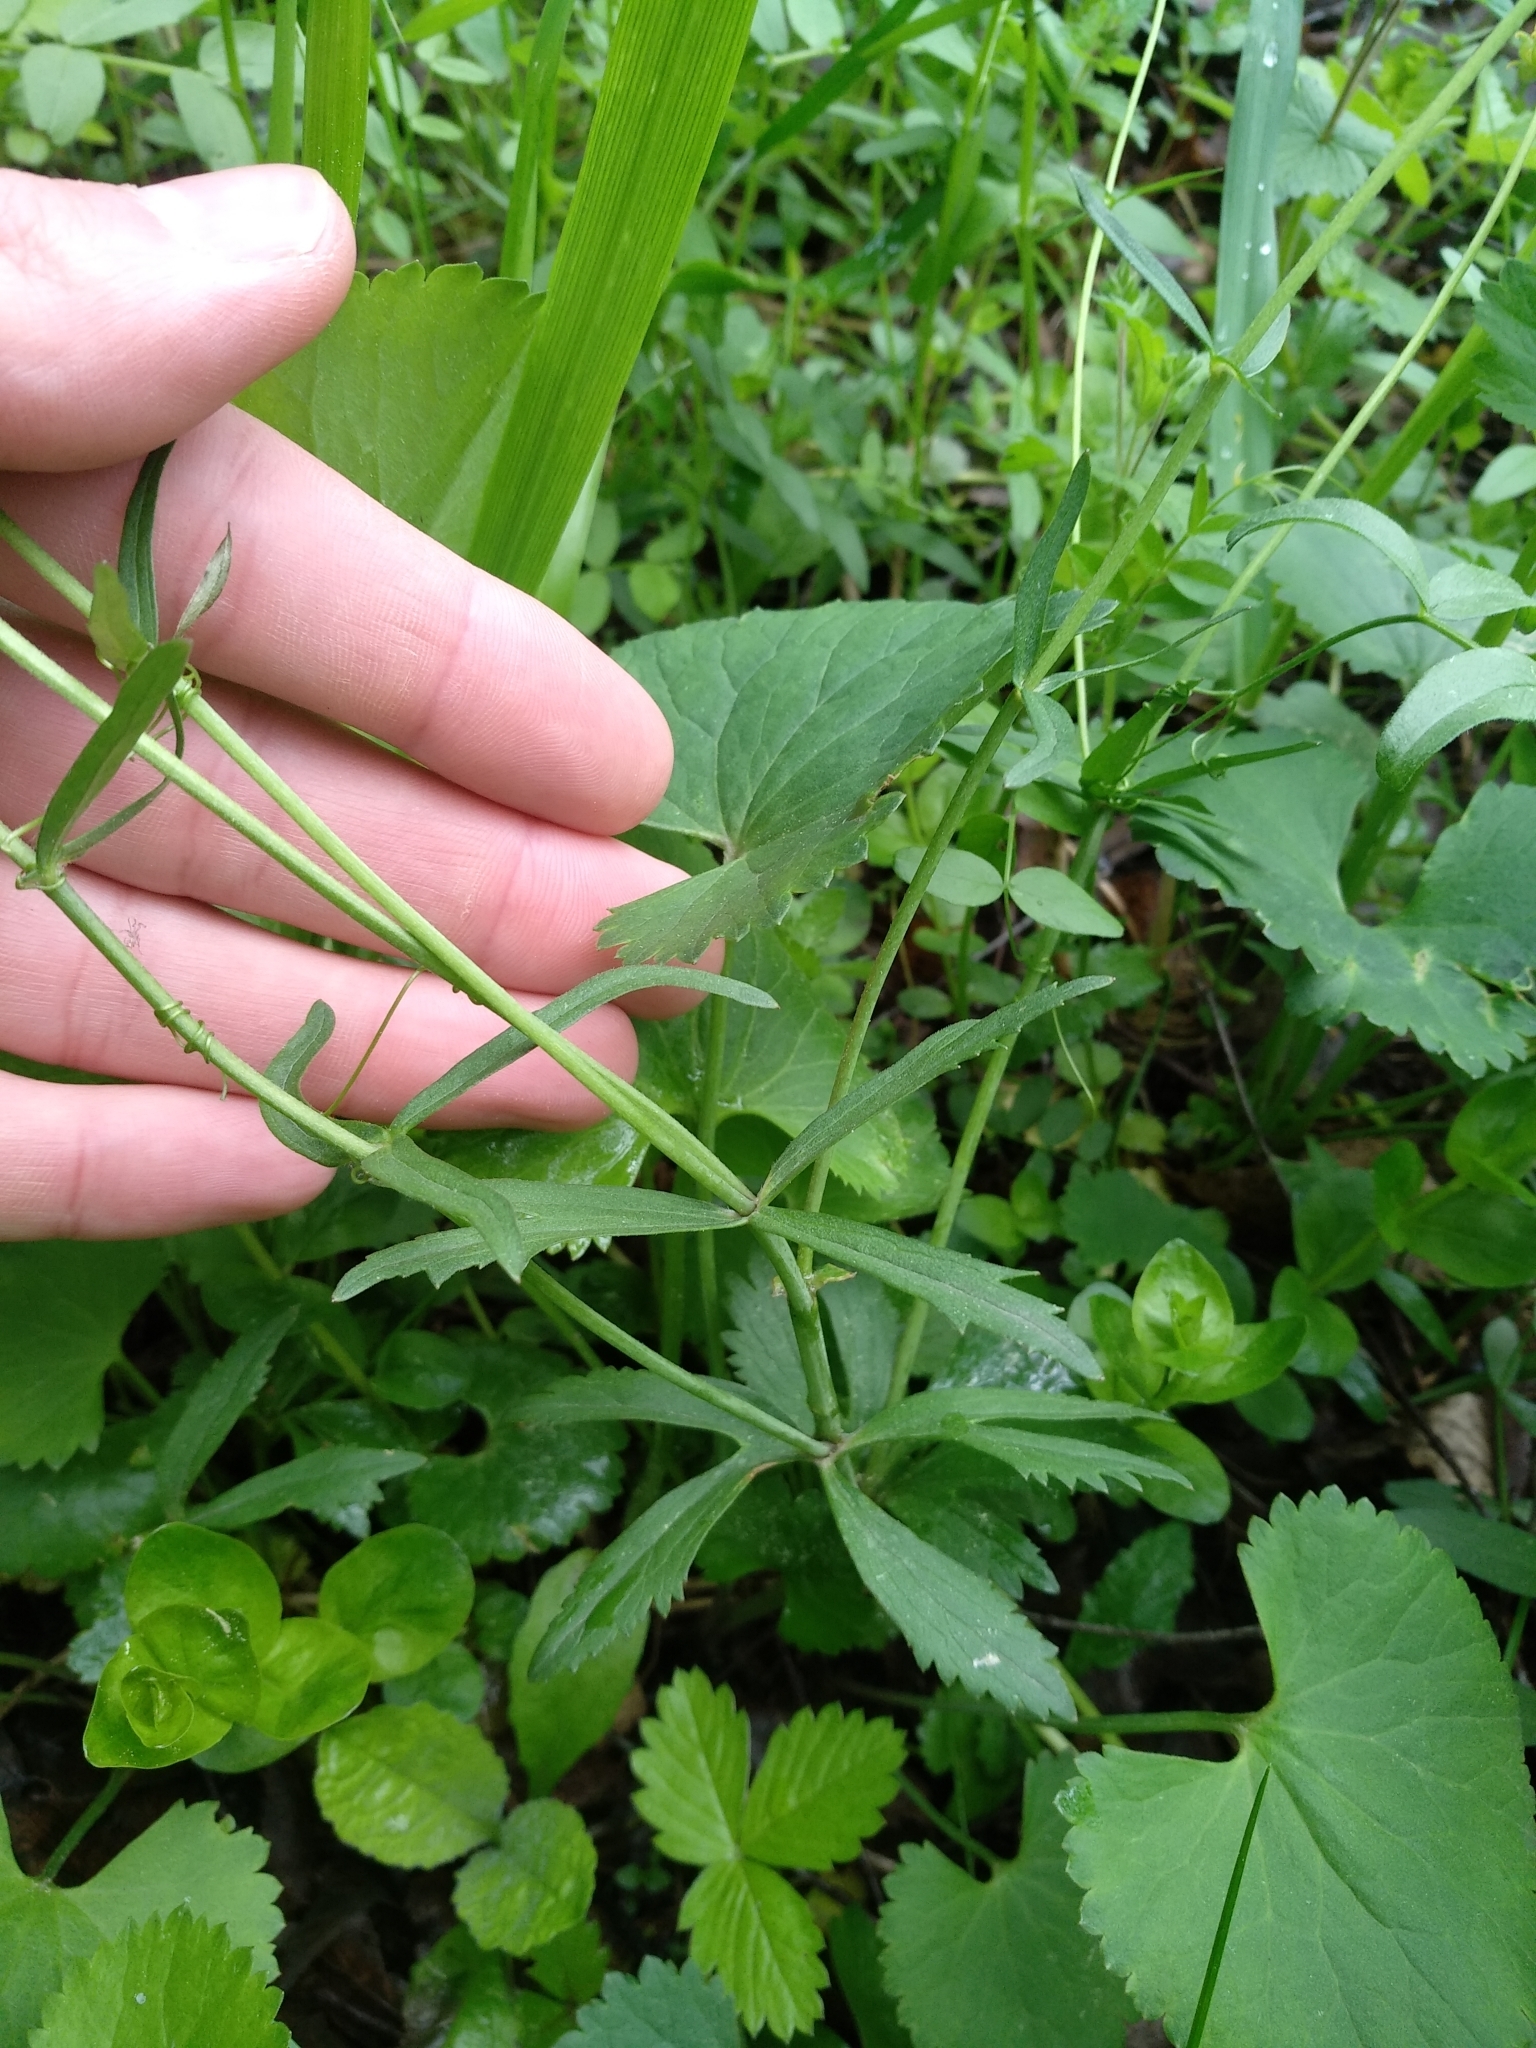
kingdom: Plantae
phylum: Tracheophyta
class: Magnoliopsida
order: Ranunculales
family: Ranunculaceae
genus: Ranunculus
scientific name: Ranunculus cassubicus
